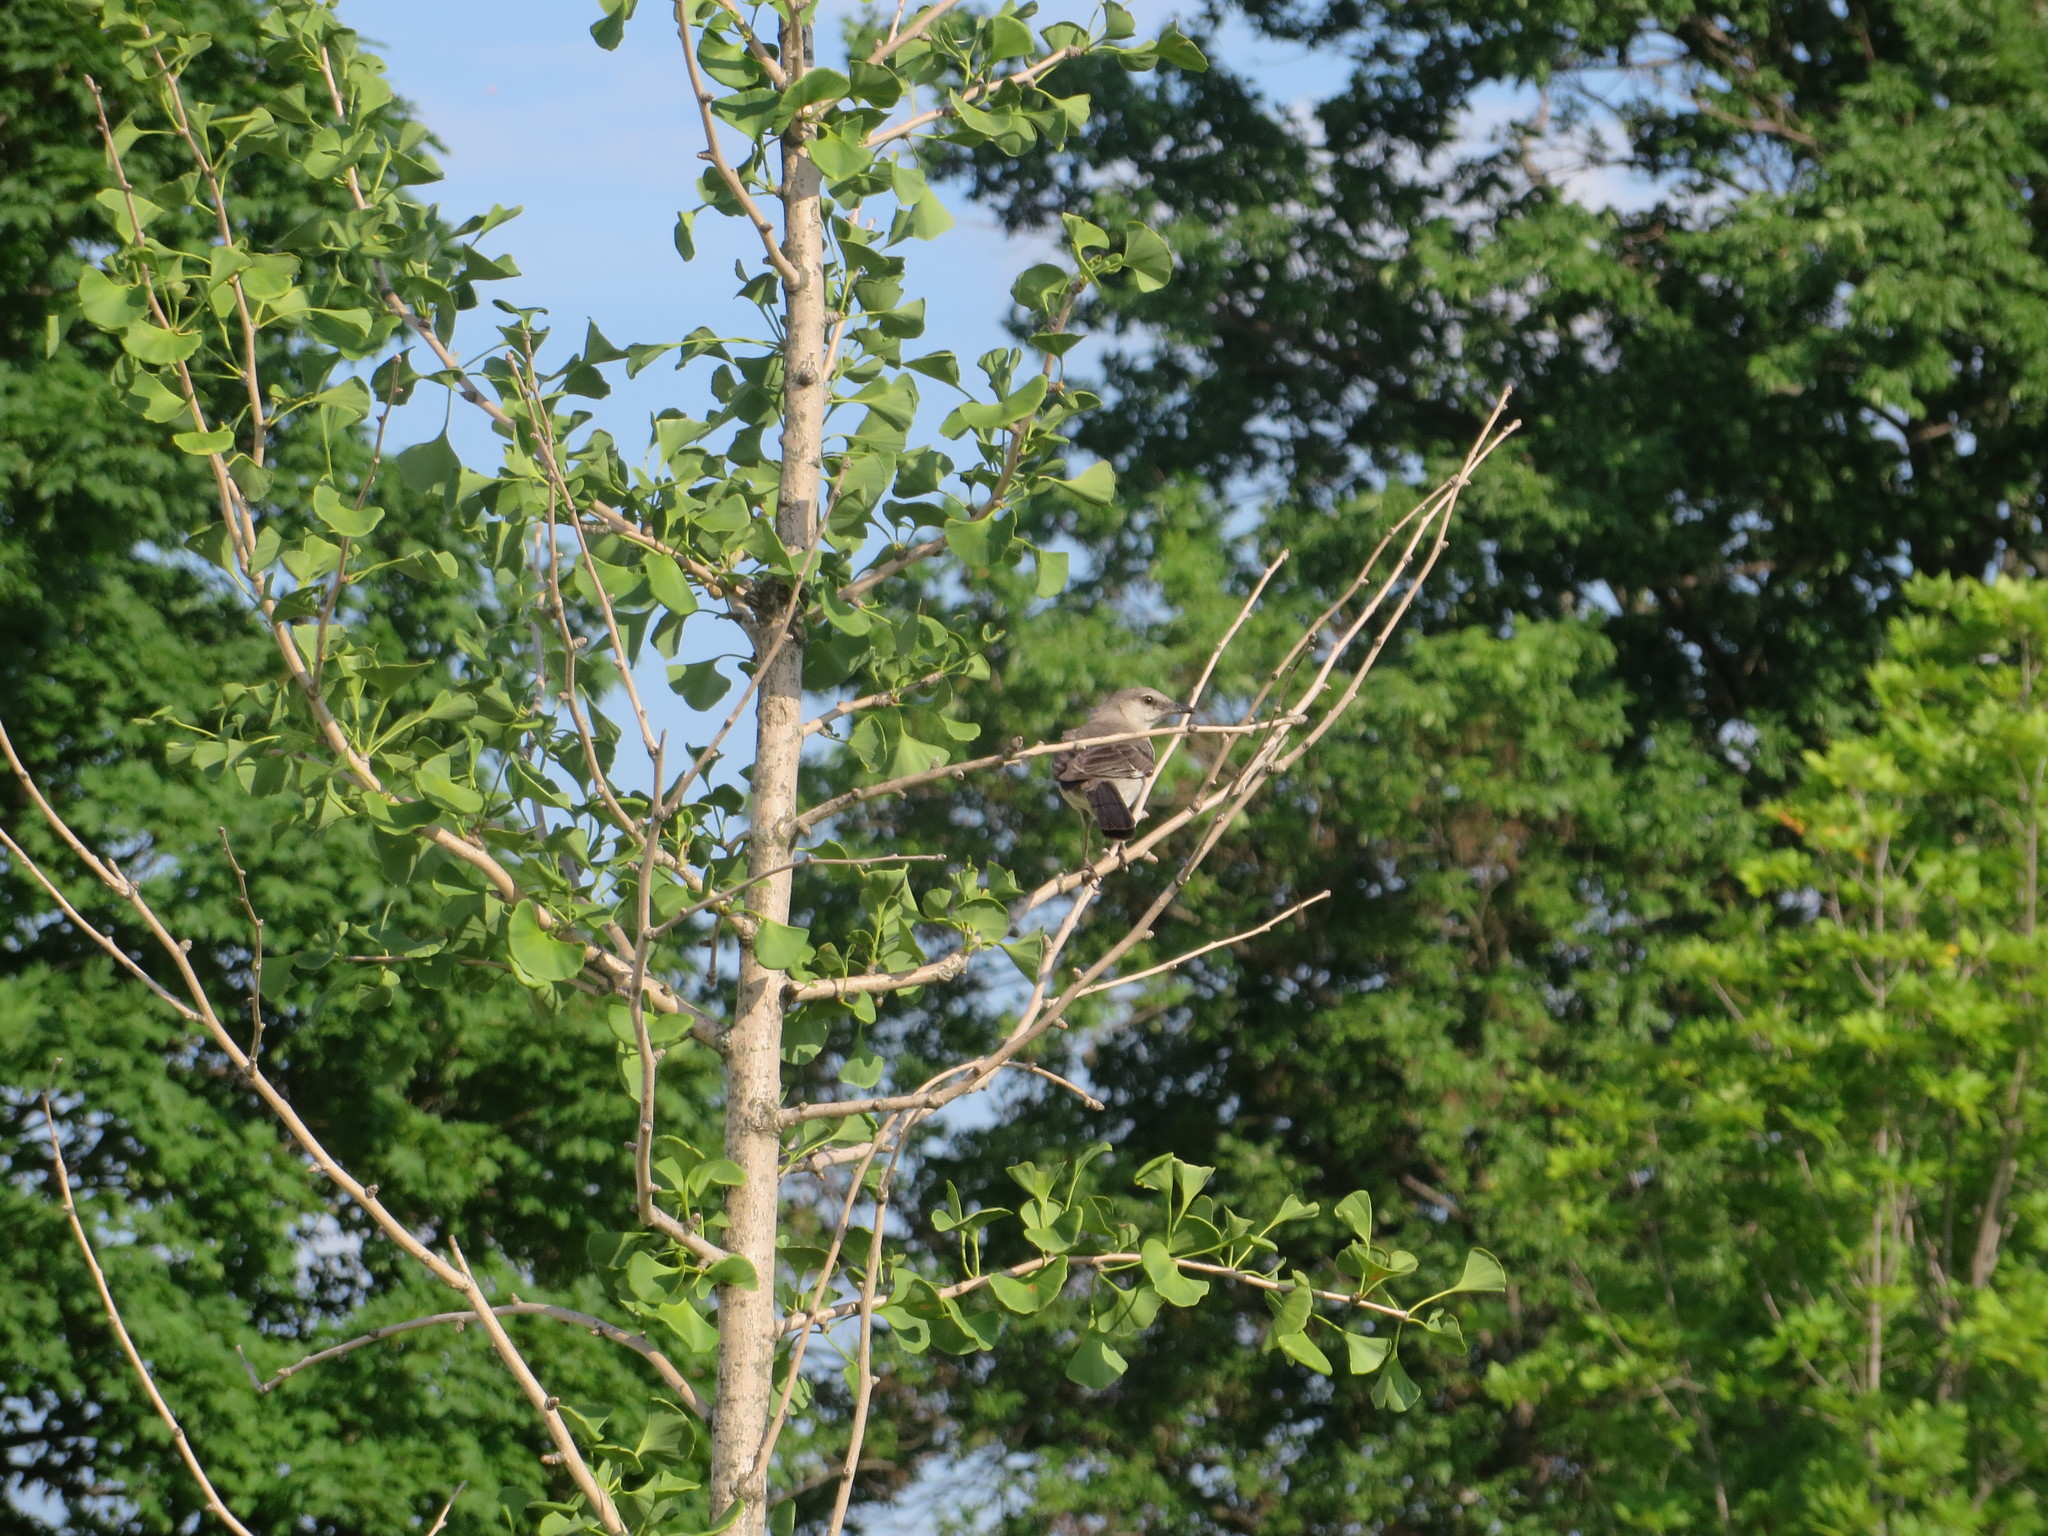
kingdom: Animalia
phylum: Chordata
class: Aves
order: Passeriformes
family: Mimidae
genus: Mimus
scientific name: Mimus polyglottos
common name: Northern mockingbird
